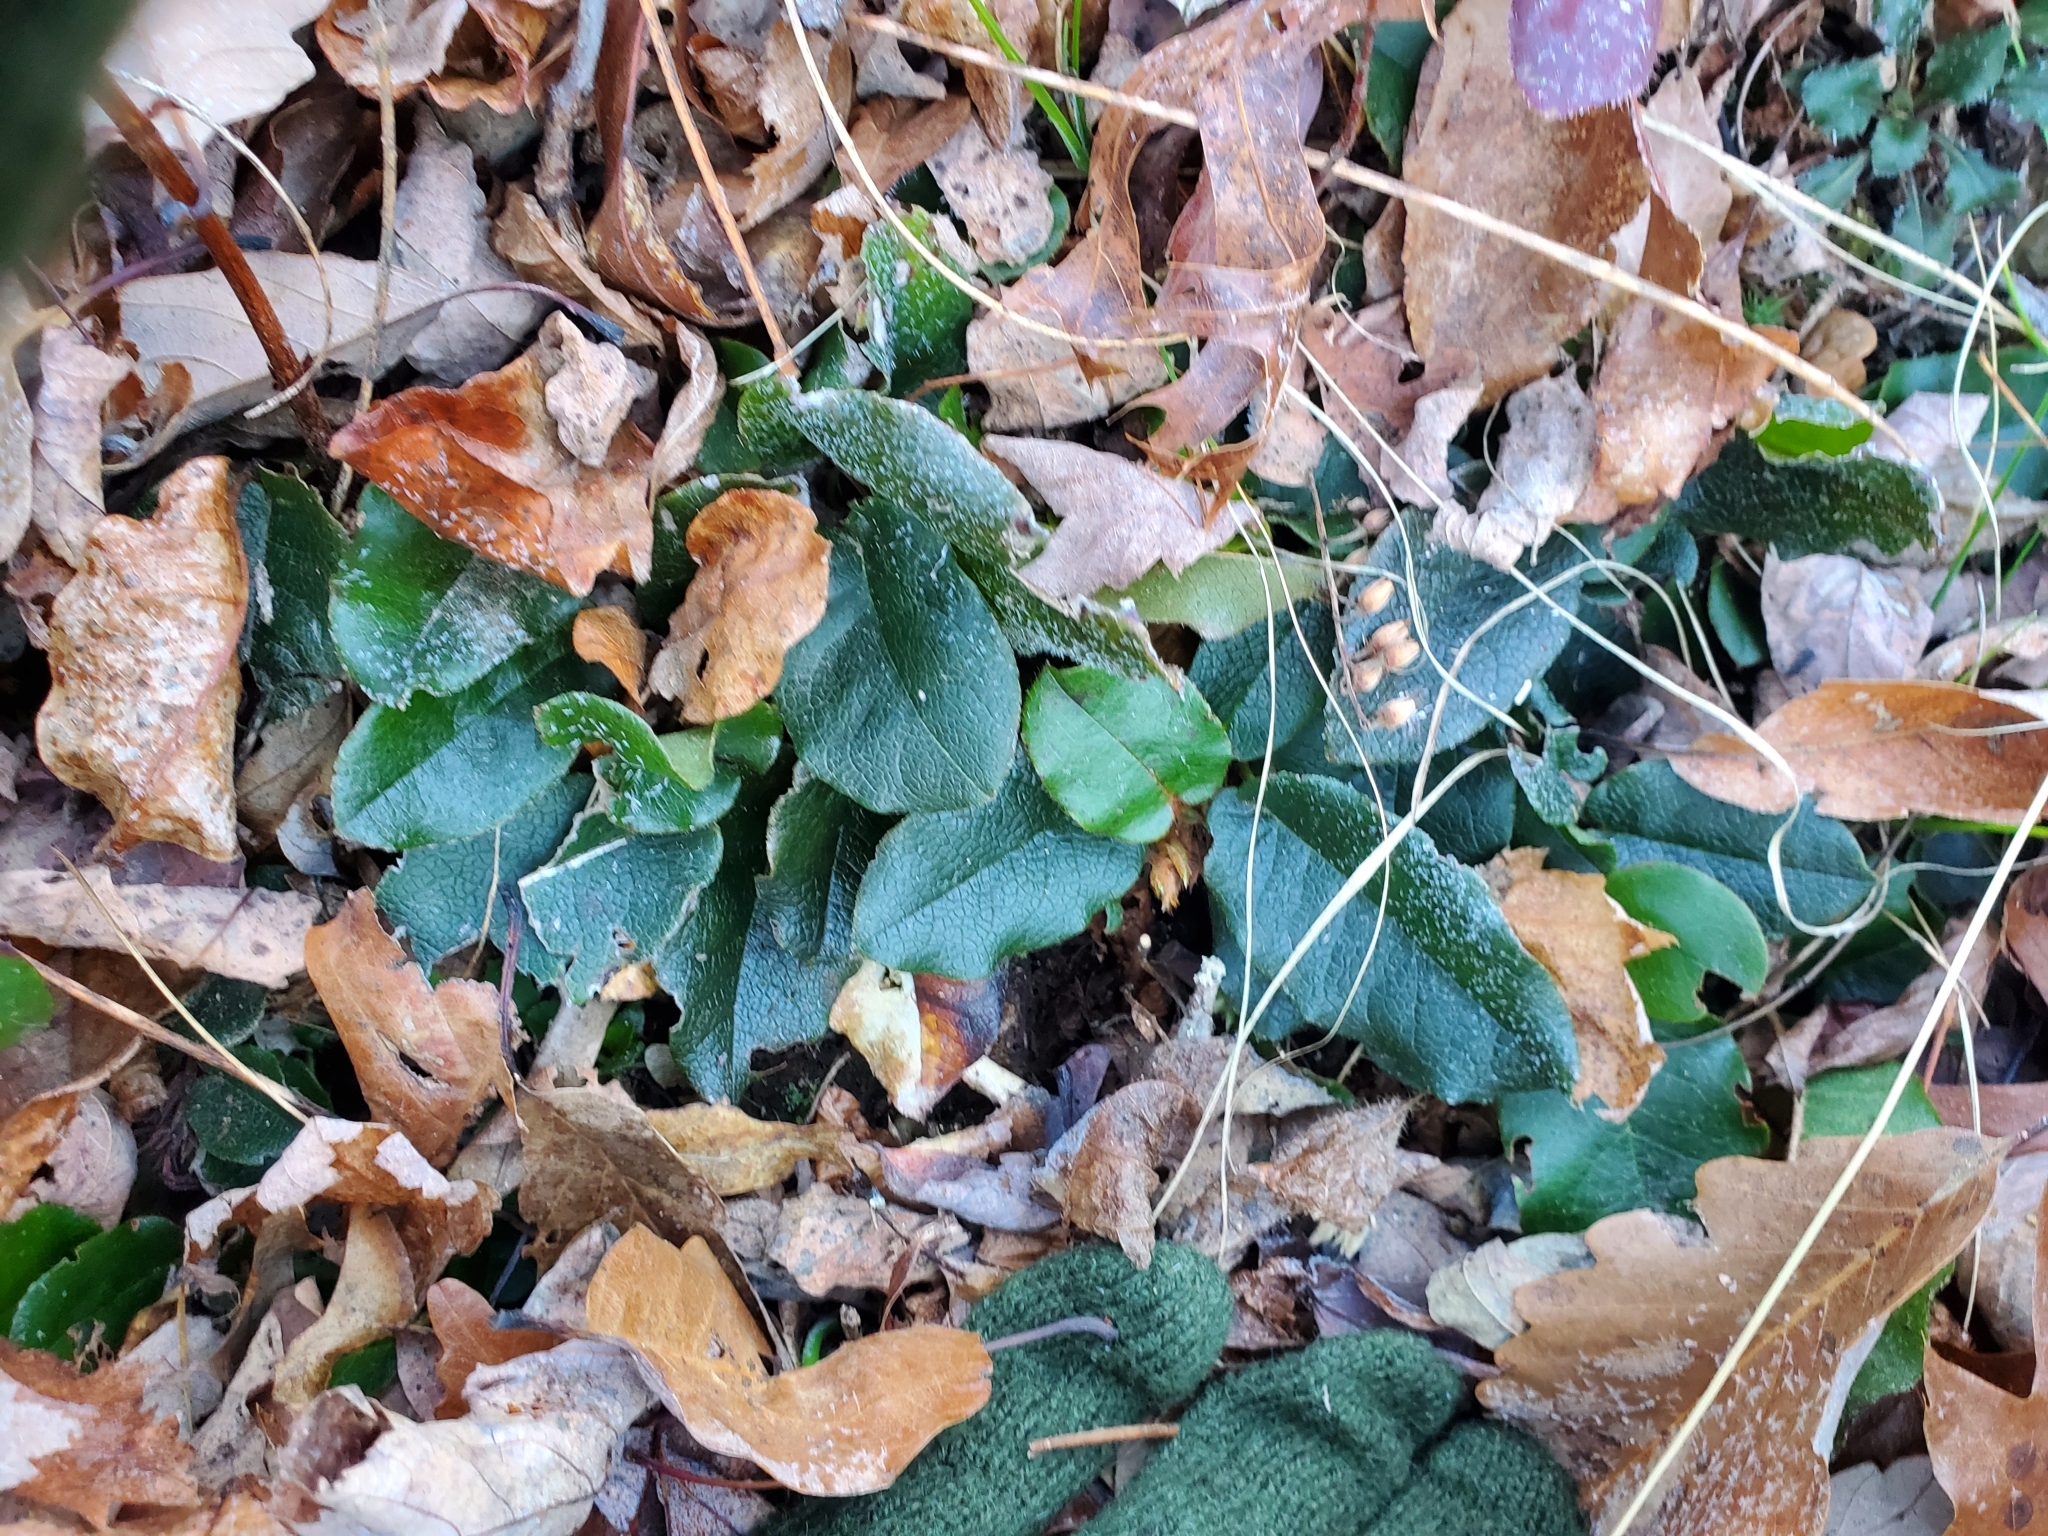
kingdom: Plantae
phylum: Tracheophyta
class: Magnoliopsida
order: Ericales
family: Ericaceae
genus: Epigaea
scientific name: Epigaea repens
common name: Gravelroot
